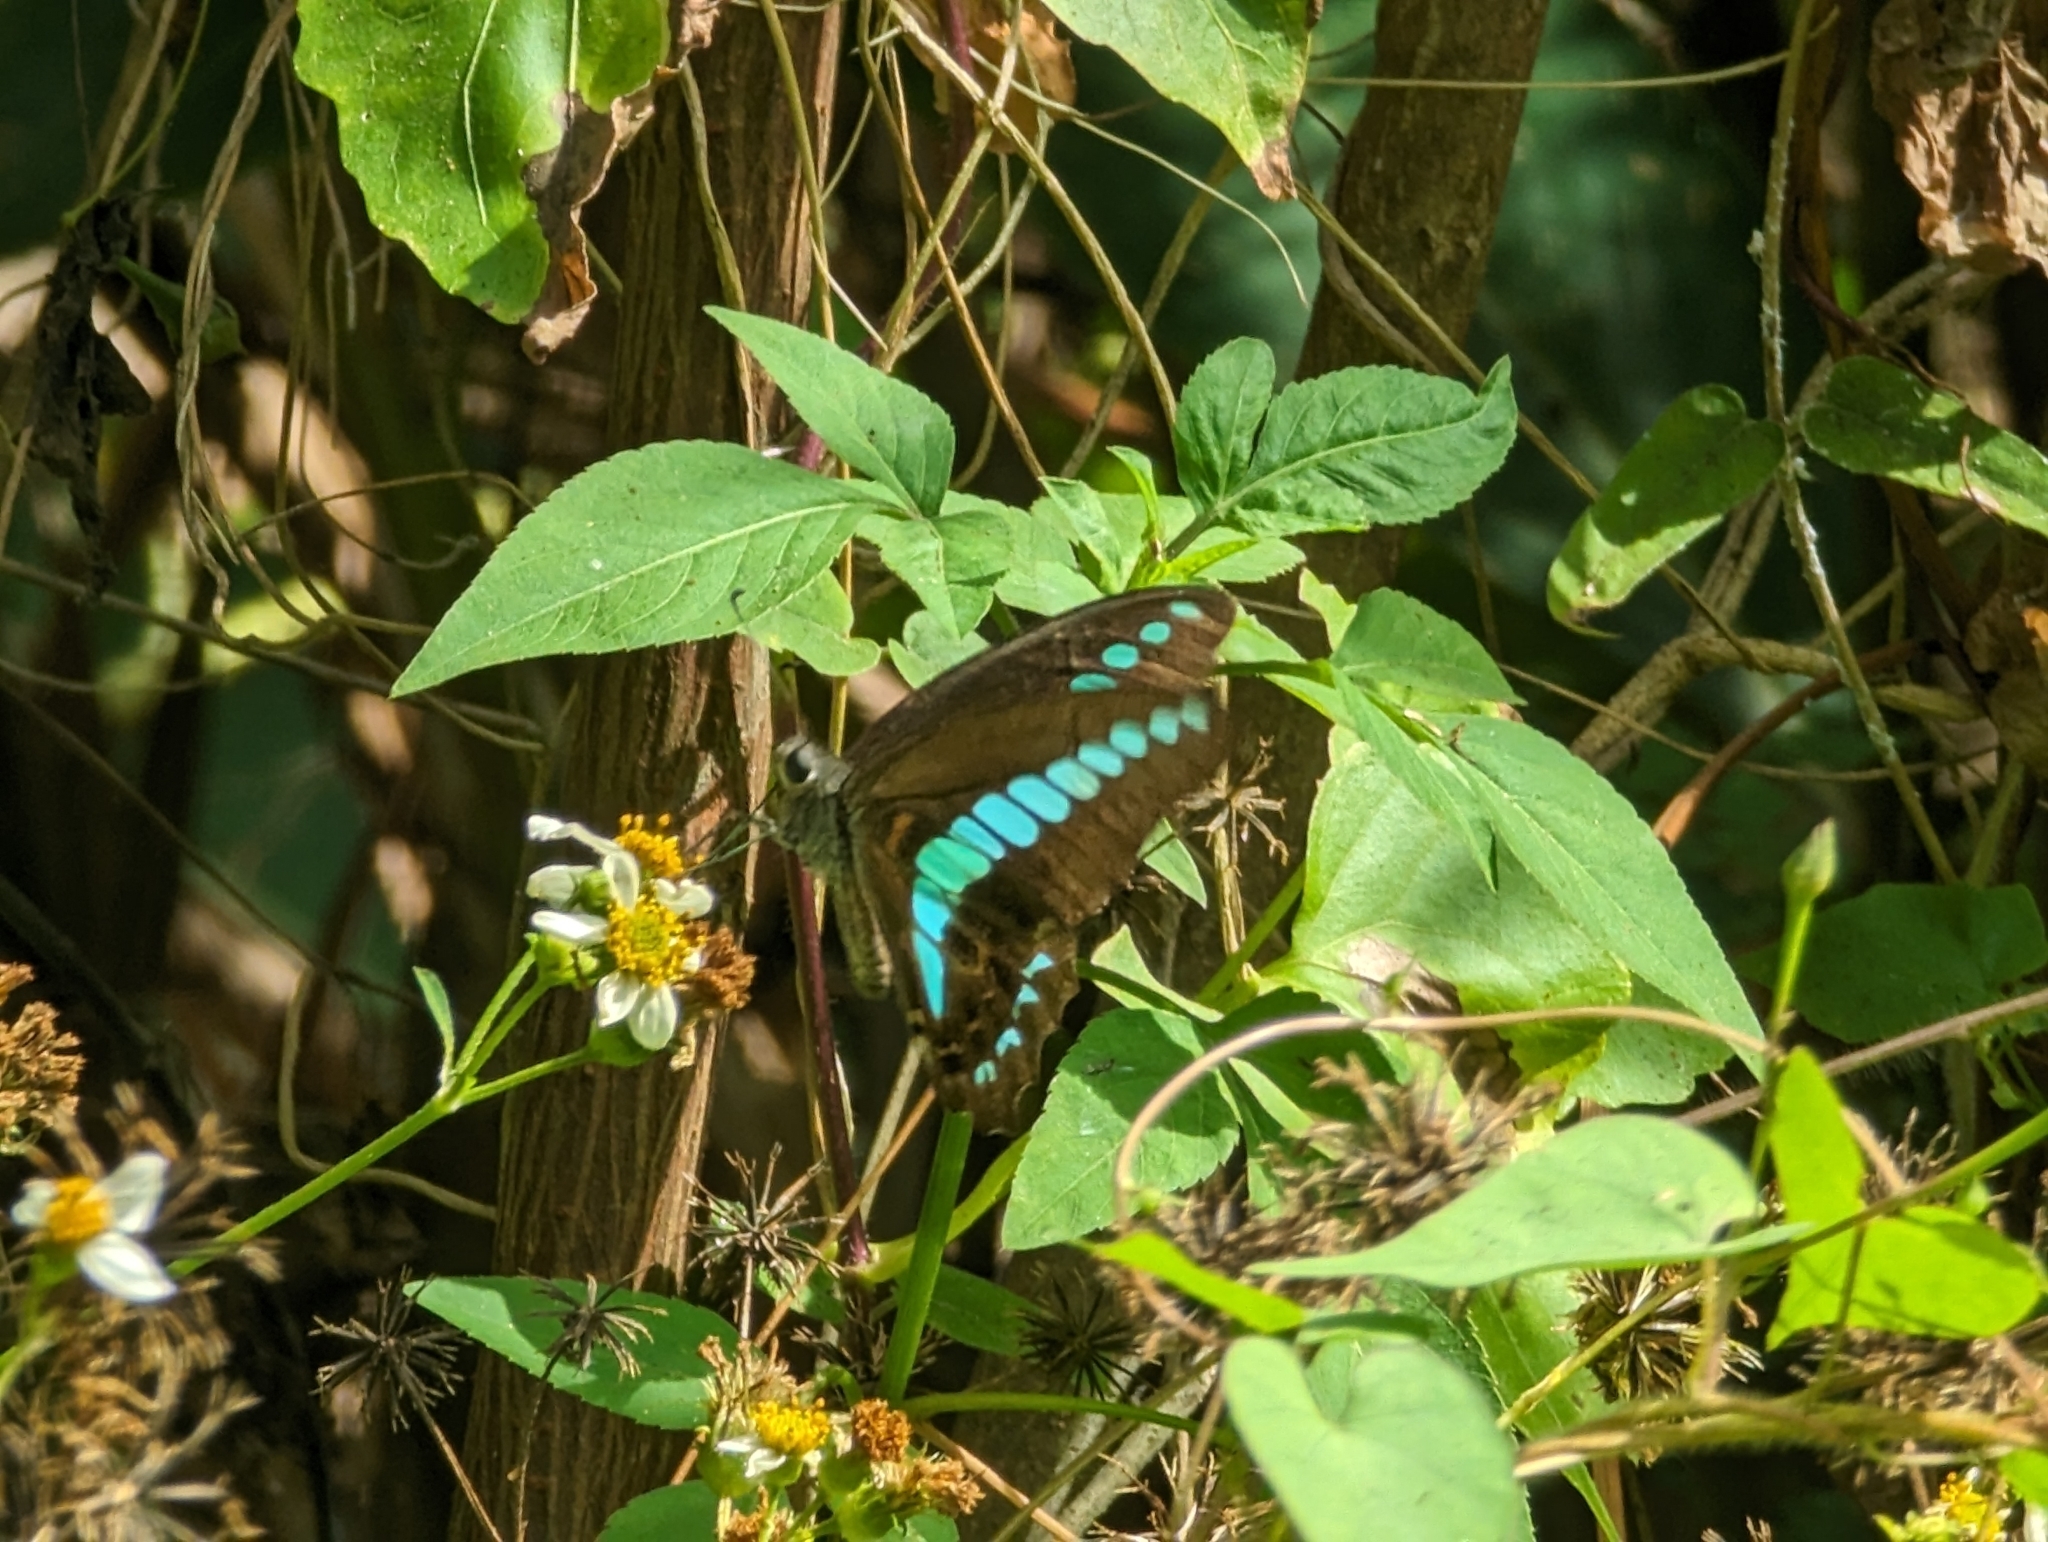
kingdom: Fungi
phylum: Ascomycota
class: Sordariomycetes
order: Microascales
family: Microascaceae
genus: Graphium
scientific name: Graphium sarpedon
